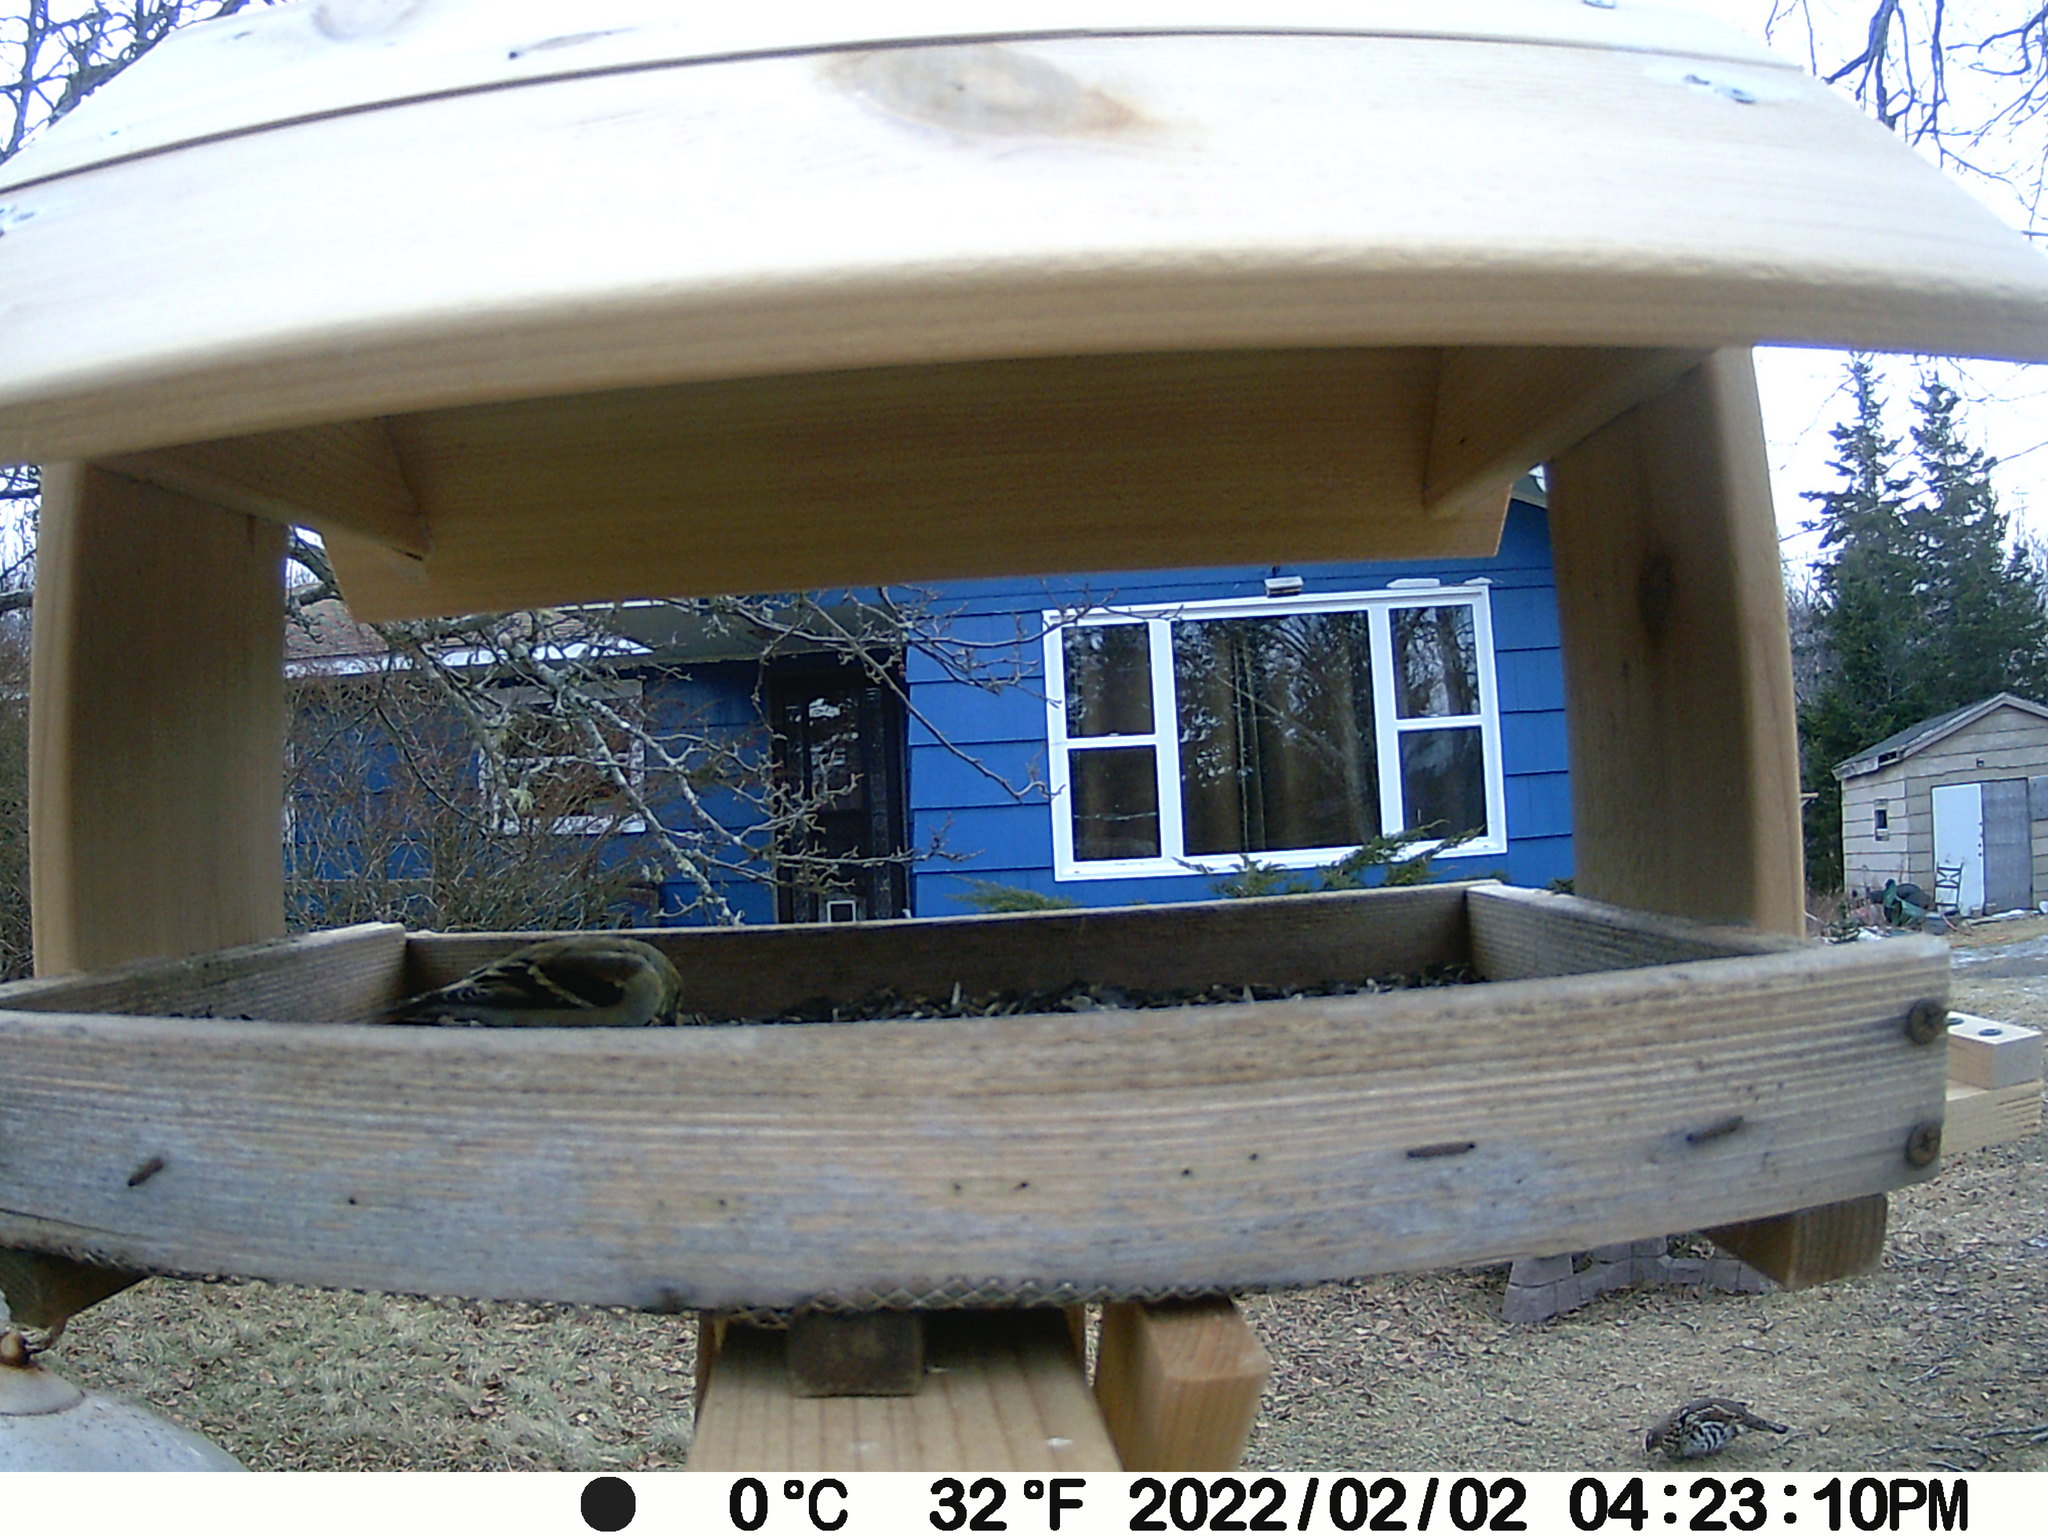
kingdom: Animalia
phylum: Chordata
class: Aves
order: Galliformes
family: Phasianidae
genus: Bonasa
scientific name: Bonasa umbellus
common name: Ruffed grouse
